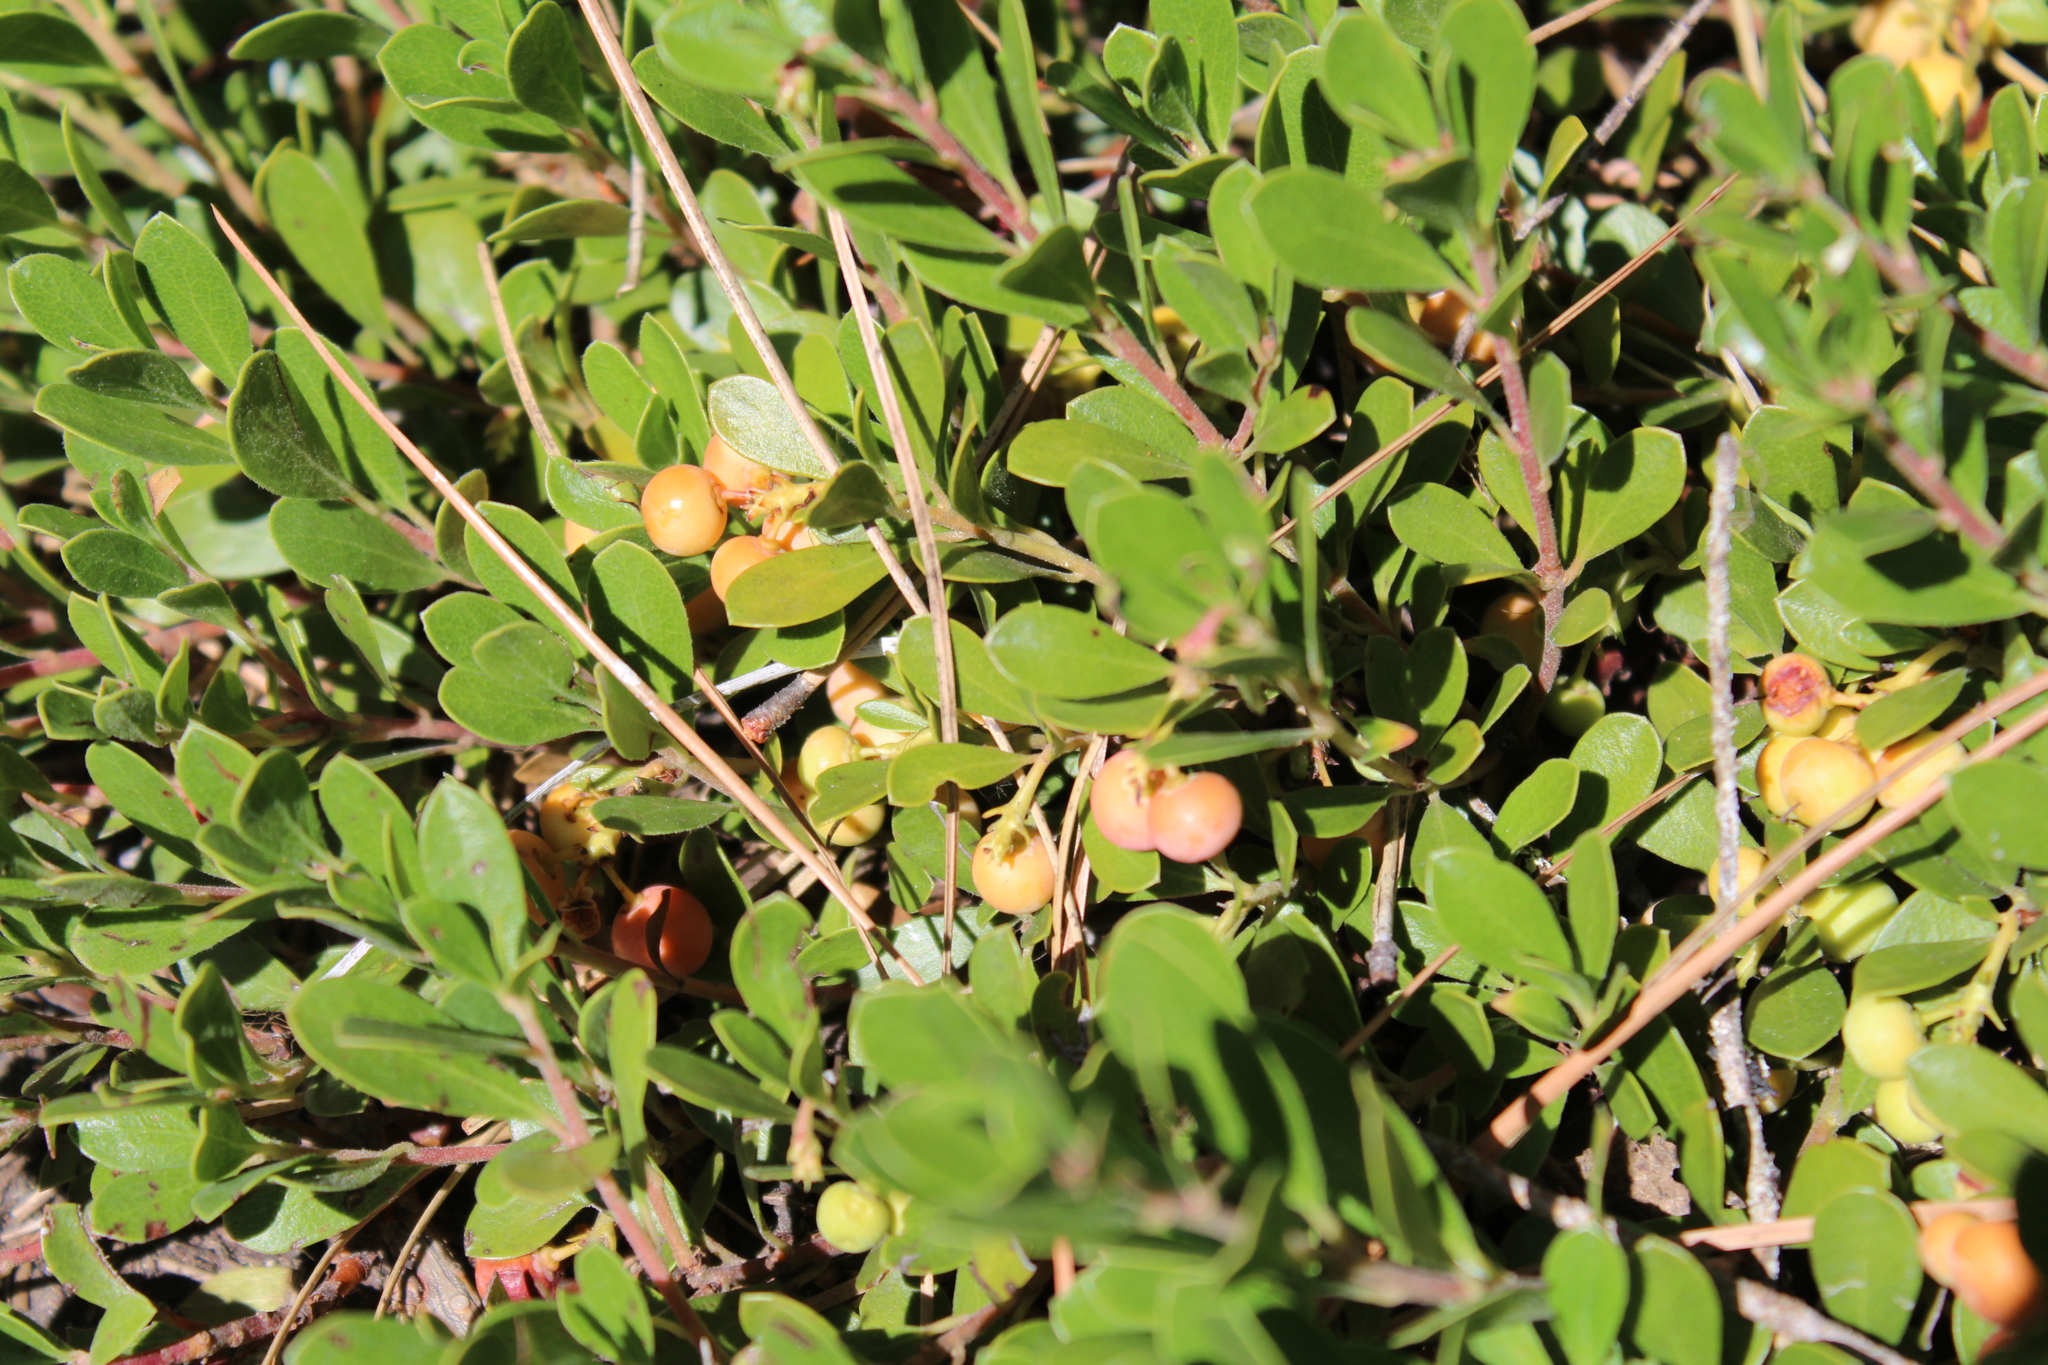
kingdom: Plantae
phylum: Tracheophyta
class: Magnoliopsida
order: Ericales
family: Ericaceae
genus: Arctostaphylos
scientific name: Arctostaphylos nevadensis
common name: Pinemat manzanita
